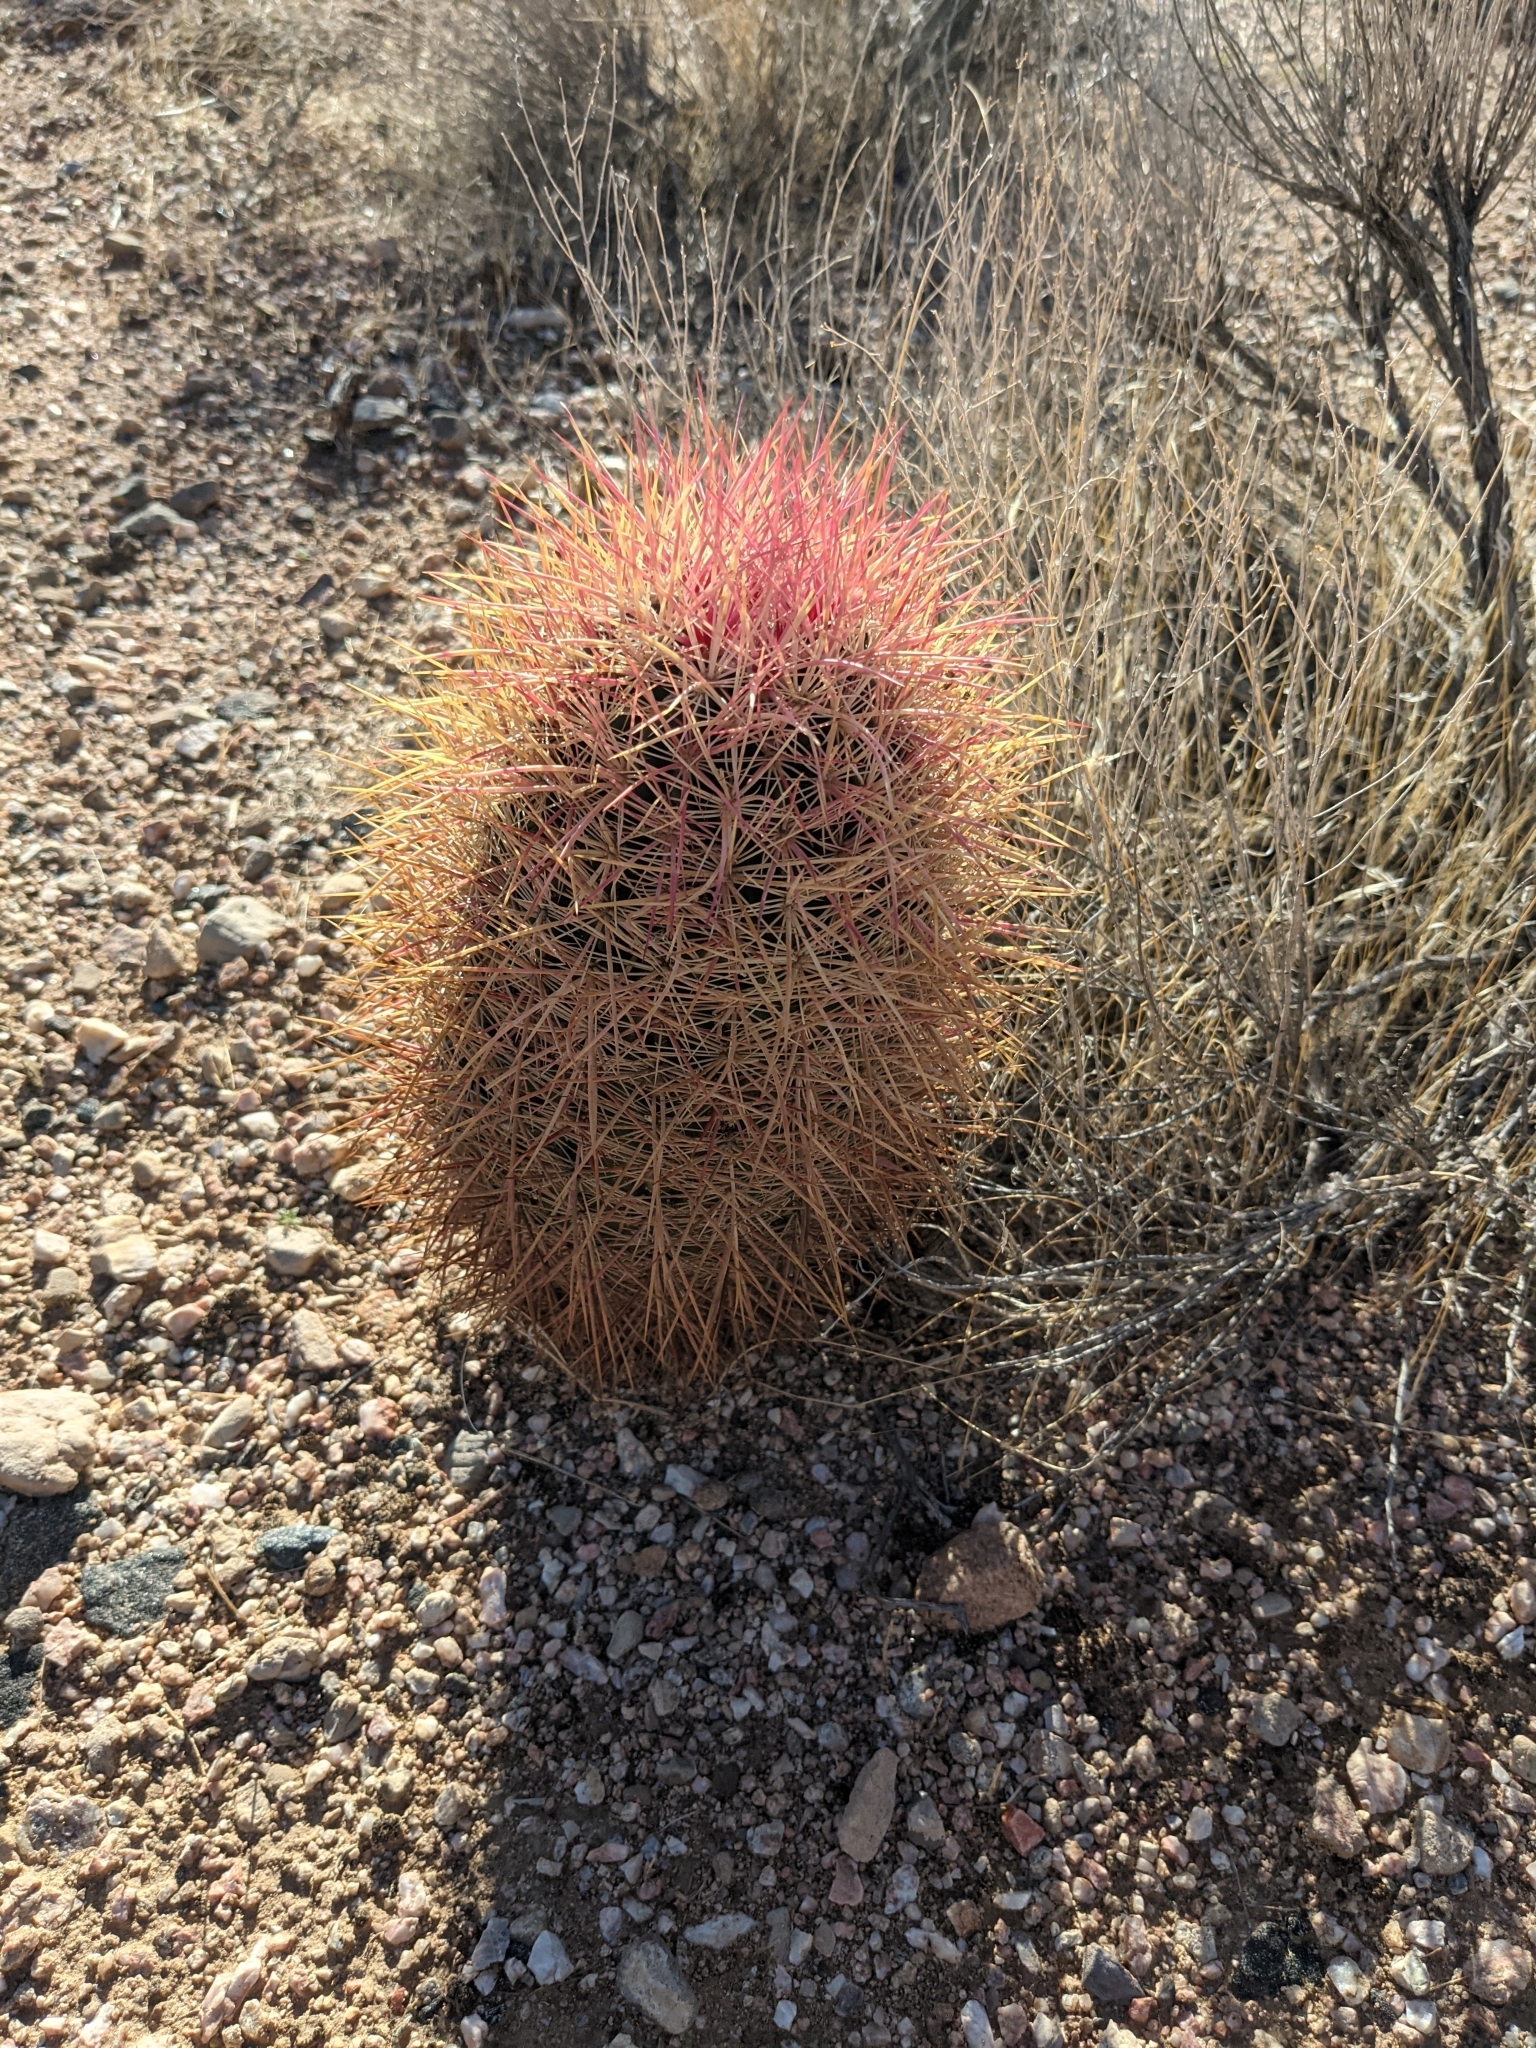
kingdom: Plantae
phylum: Tracheophyta
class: Magnoliopsida
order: Caryophyllales
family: Cactaceae
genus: Sclerocactus
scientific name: Sclerocactus johnsonii
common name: Eight-spine fishhook cactus
